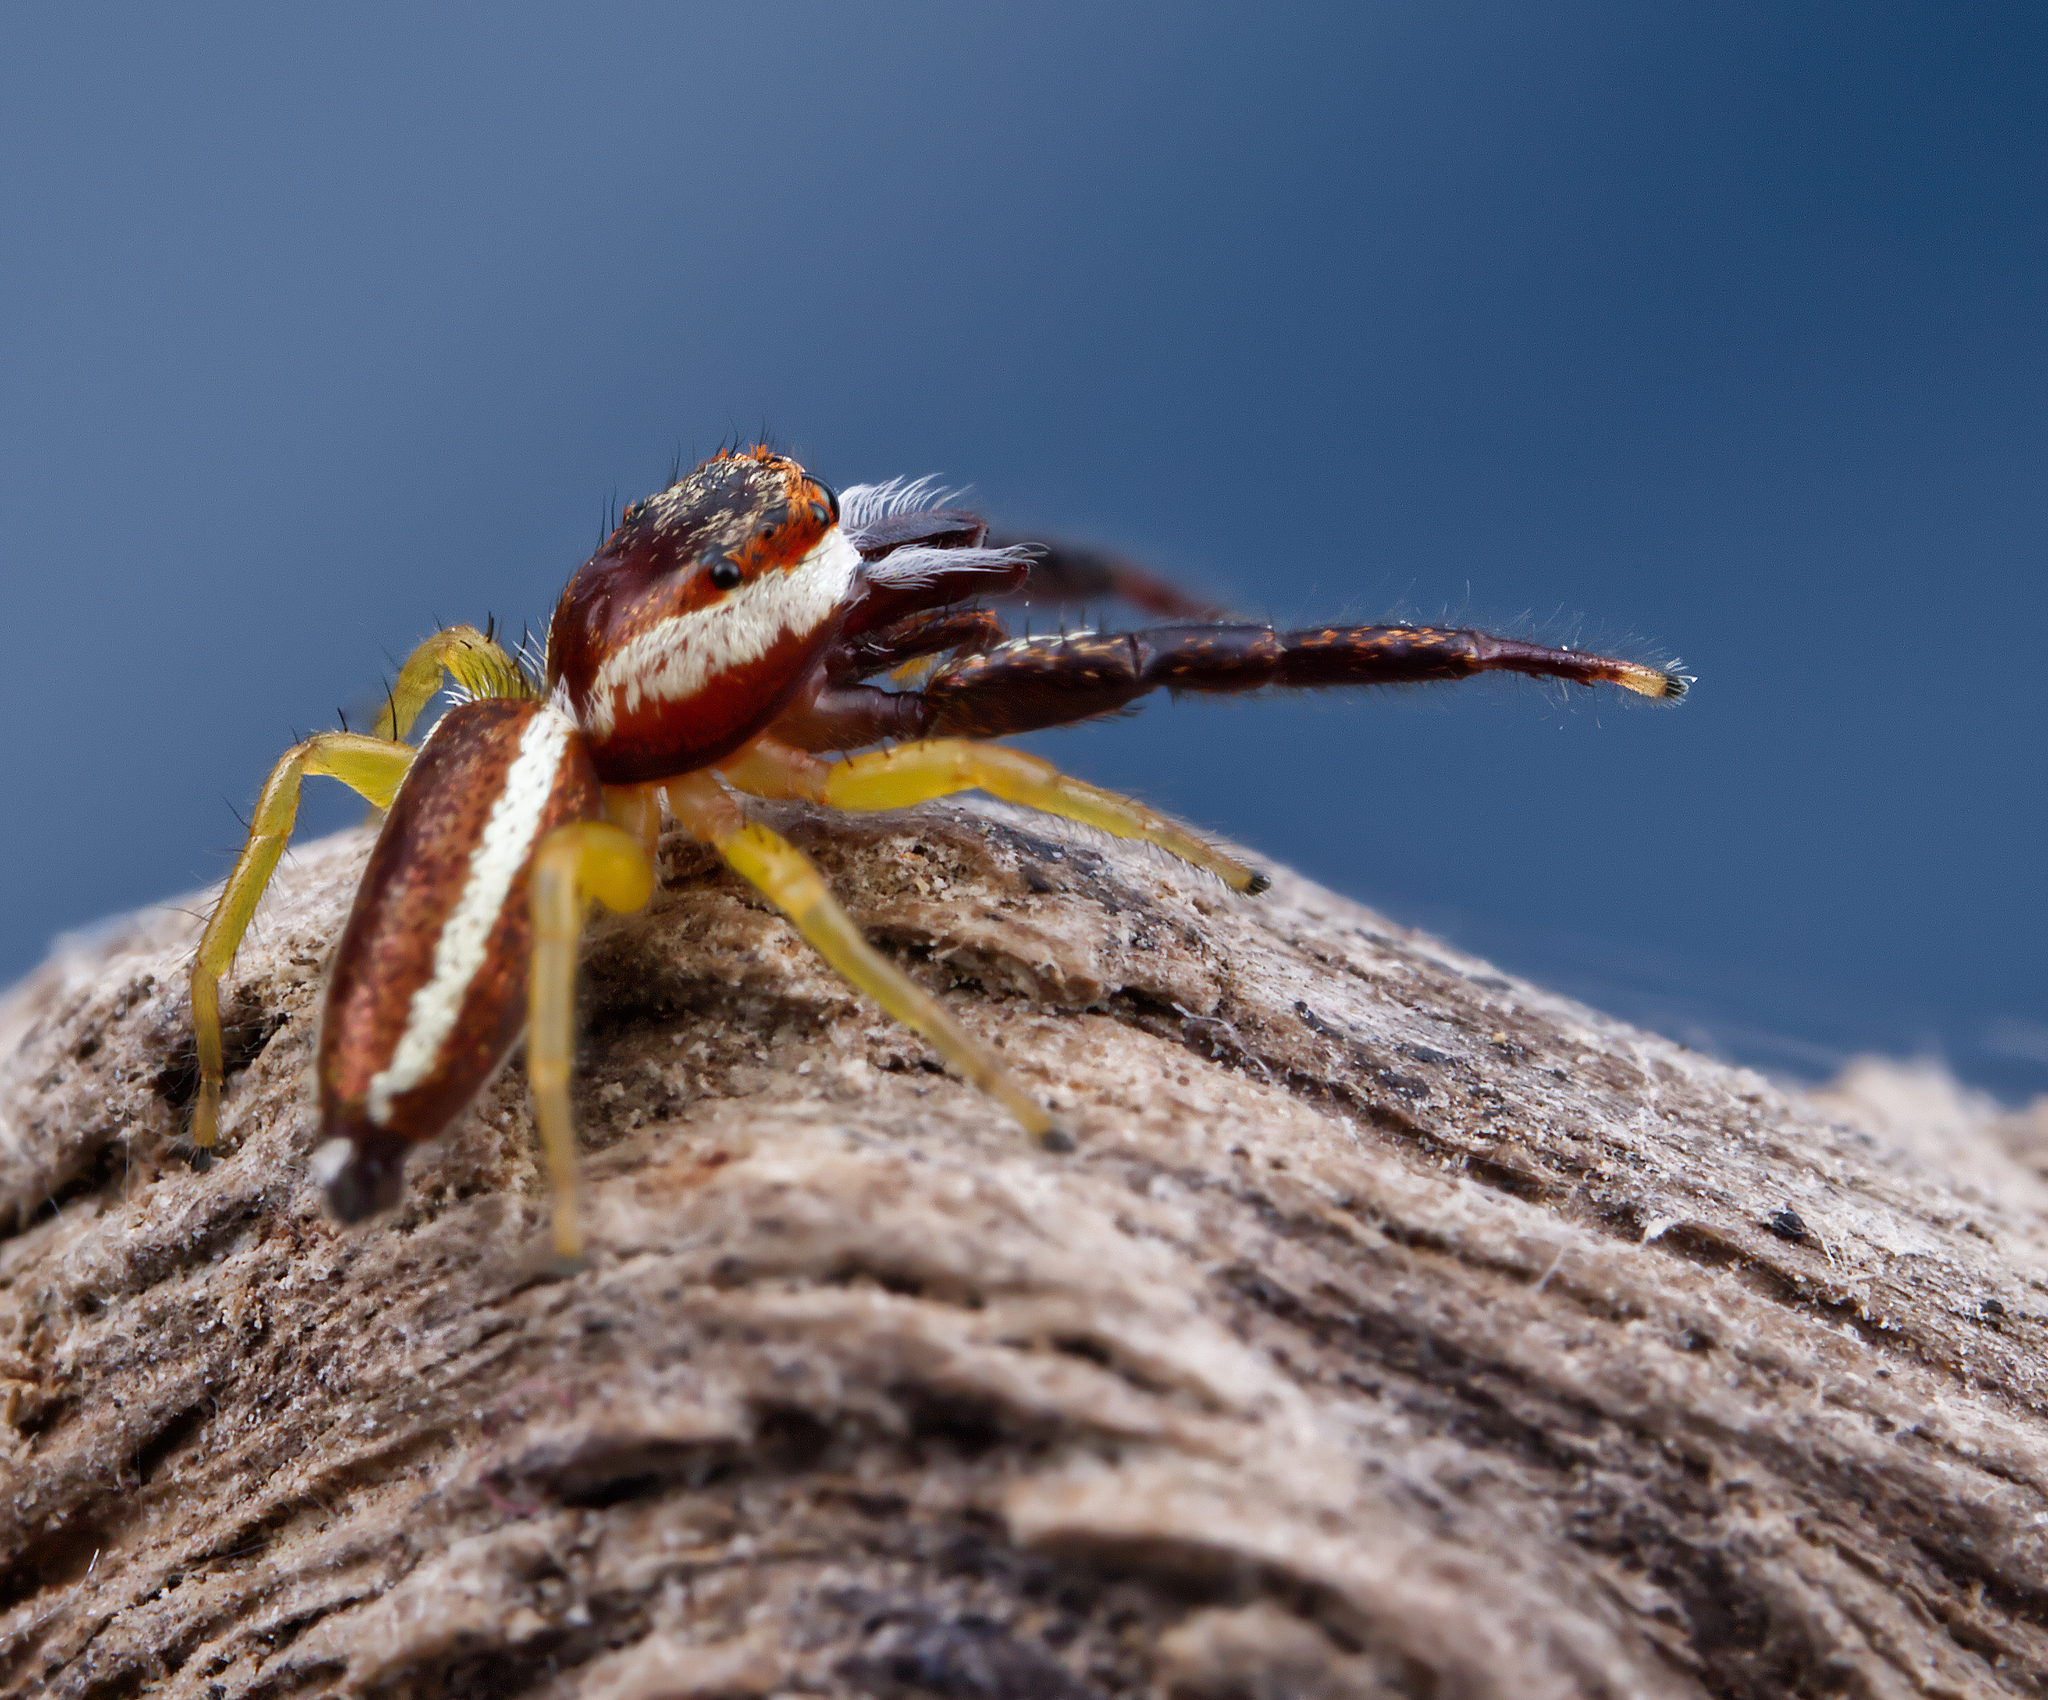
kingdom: Animalia
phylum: Arthropoda
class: Arachnida
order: Araneae
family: Salticidae
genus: Hentzia
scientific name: Hentzia palmarum
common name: Common hentz jumping spider
